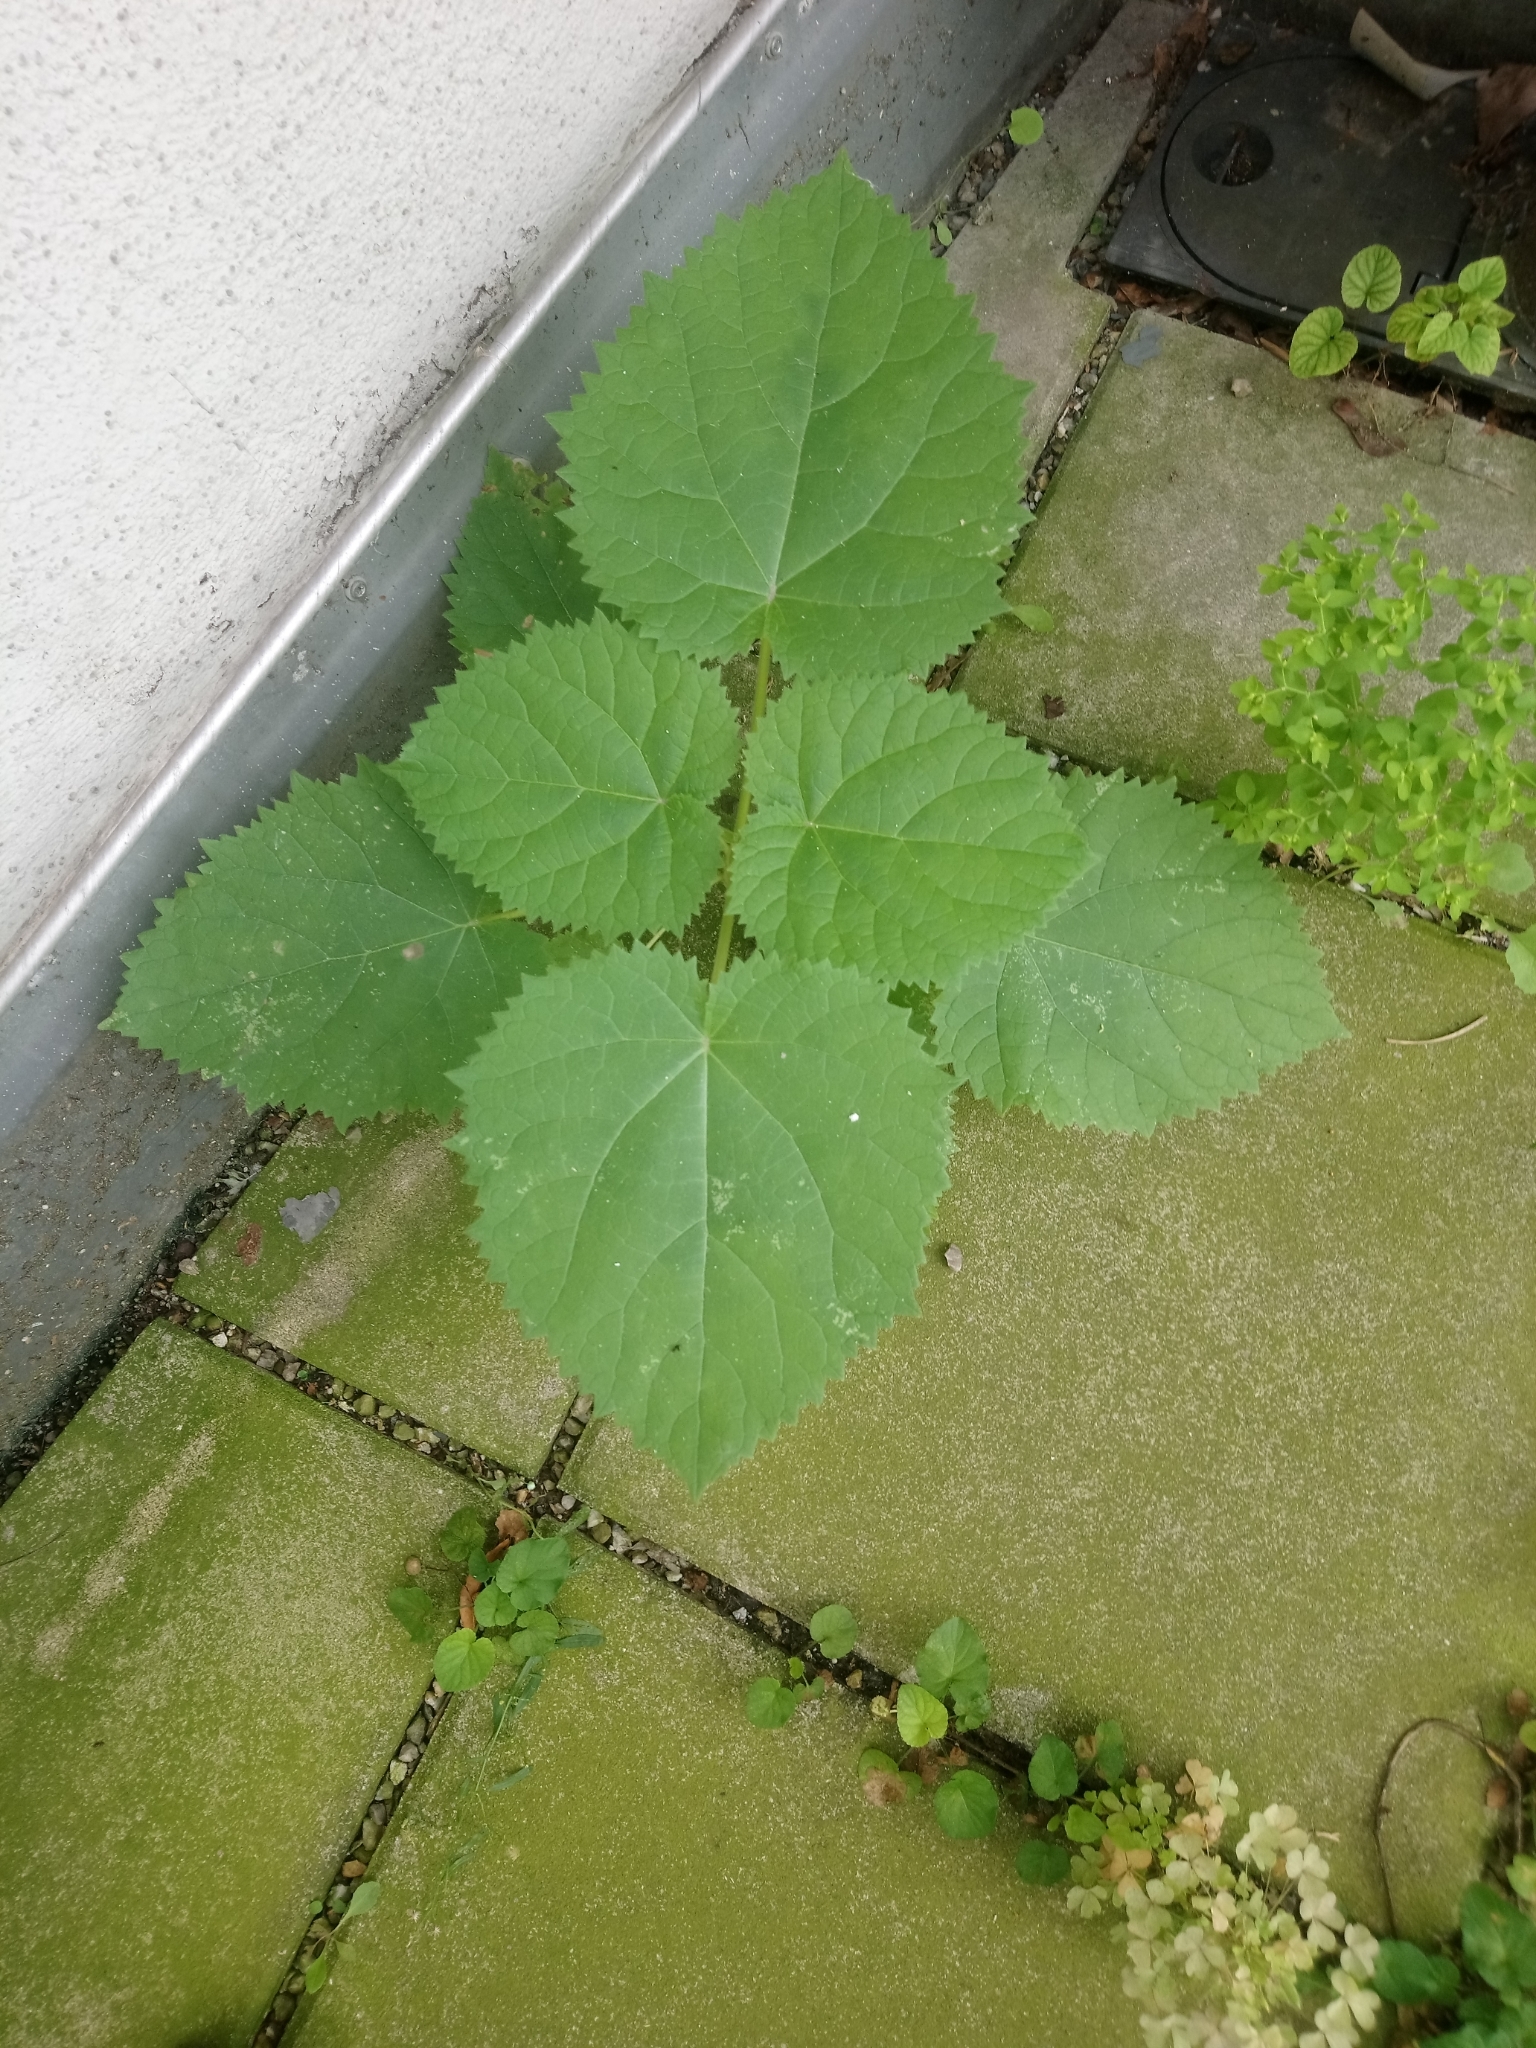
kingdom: Plantae
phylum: Tracheophyta
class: Magnoliopsida
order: Lamiales
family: Paulowniaceae
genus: Paulownia
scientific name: Paulownia tomentosa
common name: Foxglove-tree
